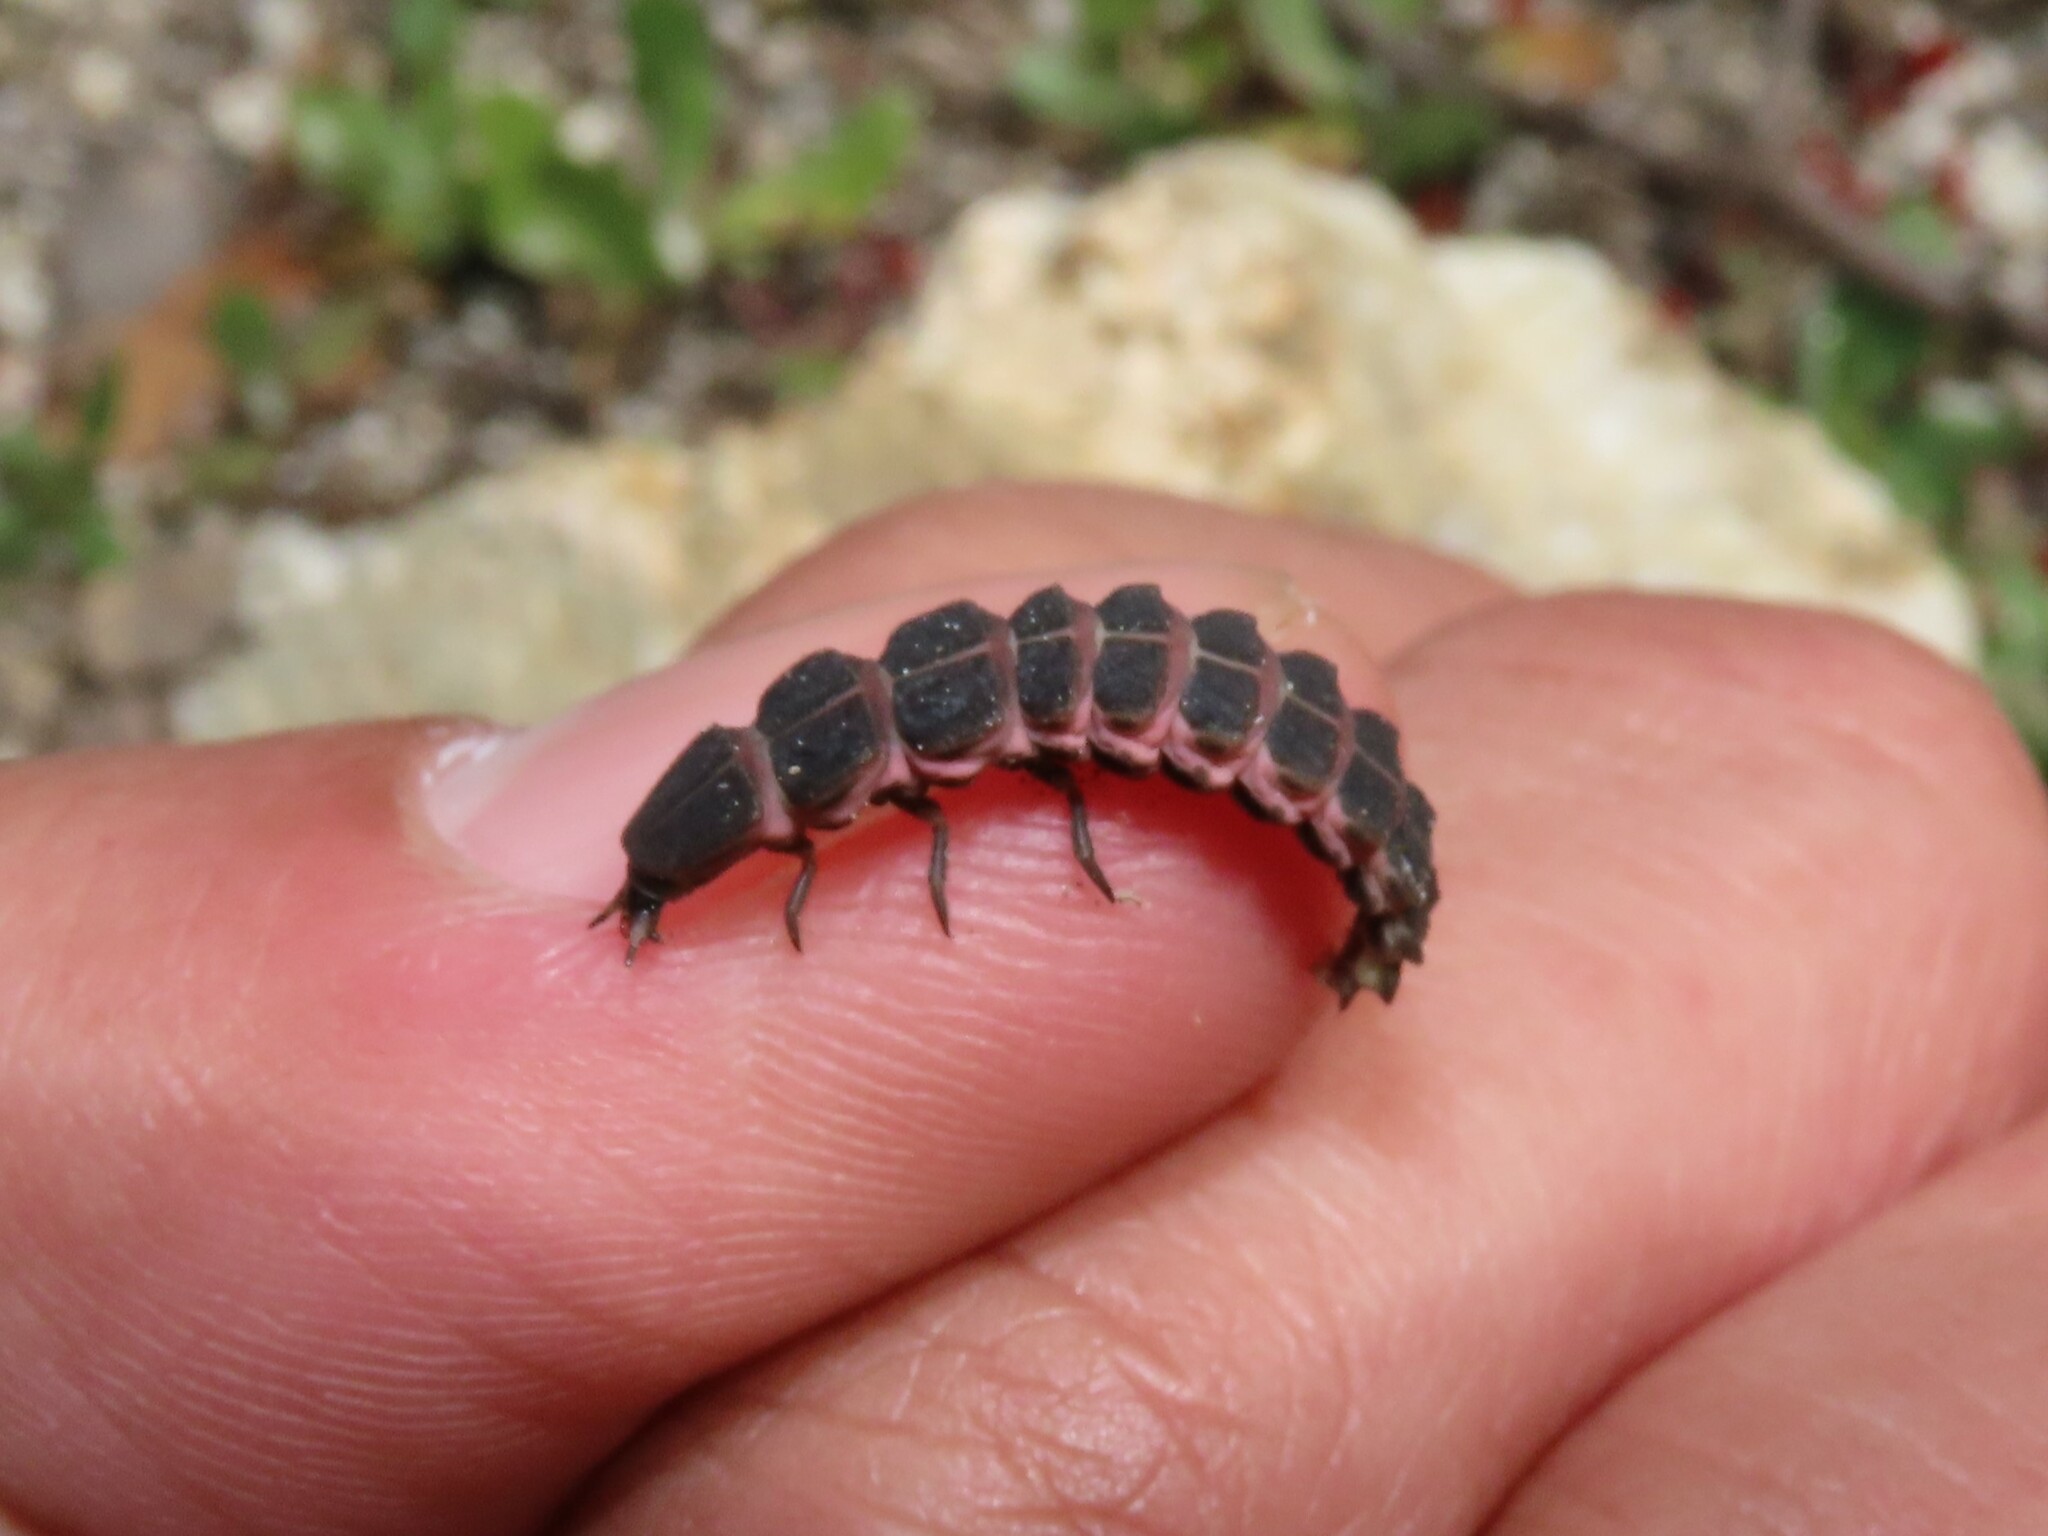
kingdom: Animalia
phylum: Arthropoda
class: Insecta
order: Coleoptera
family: Lampyridae
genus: Nyctophila
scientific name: Nyctophila reichii
